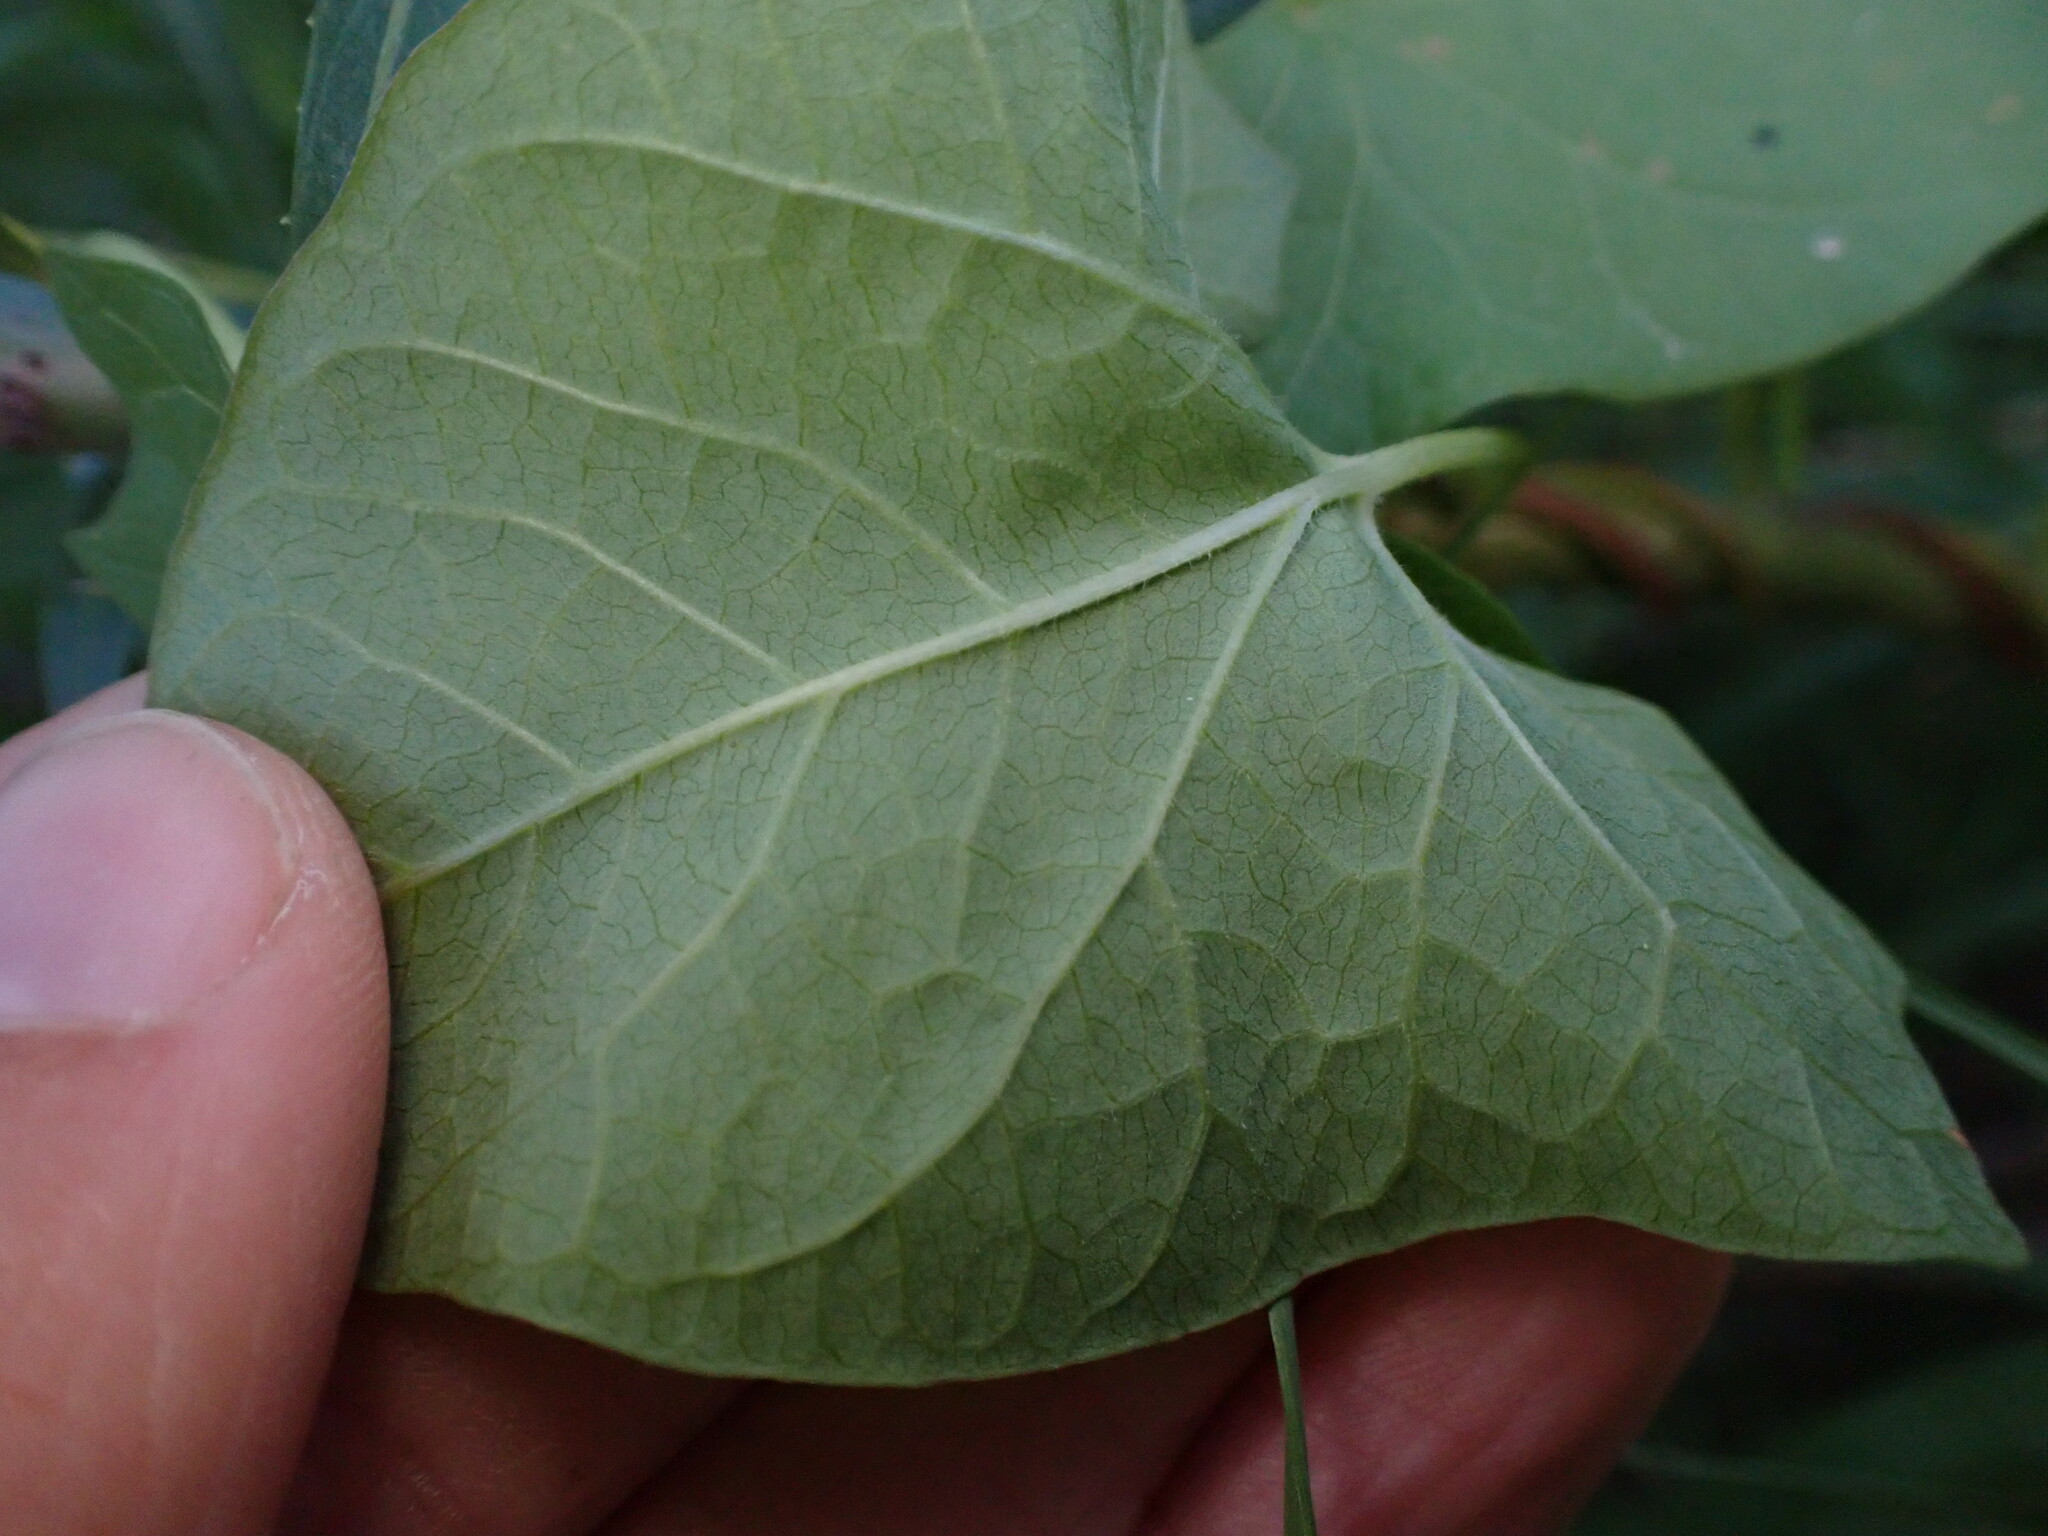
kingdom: Plantae
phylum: Tracheophyta
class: Magnoliopsida
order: Solanales
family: Convolvulaceae
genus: Calystegia
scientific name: Calystegia sepium
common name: Hedge bindweed
